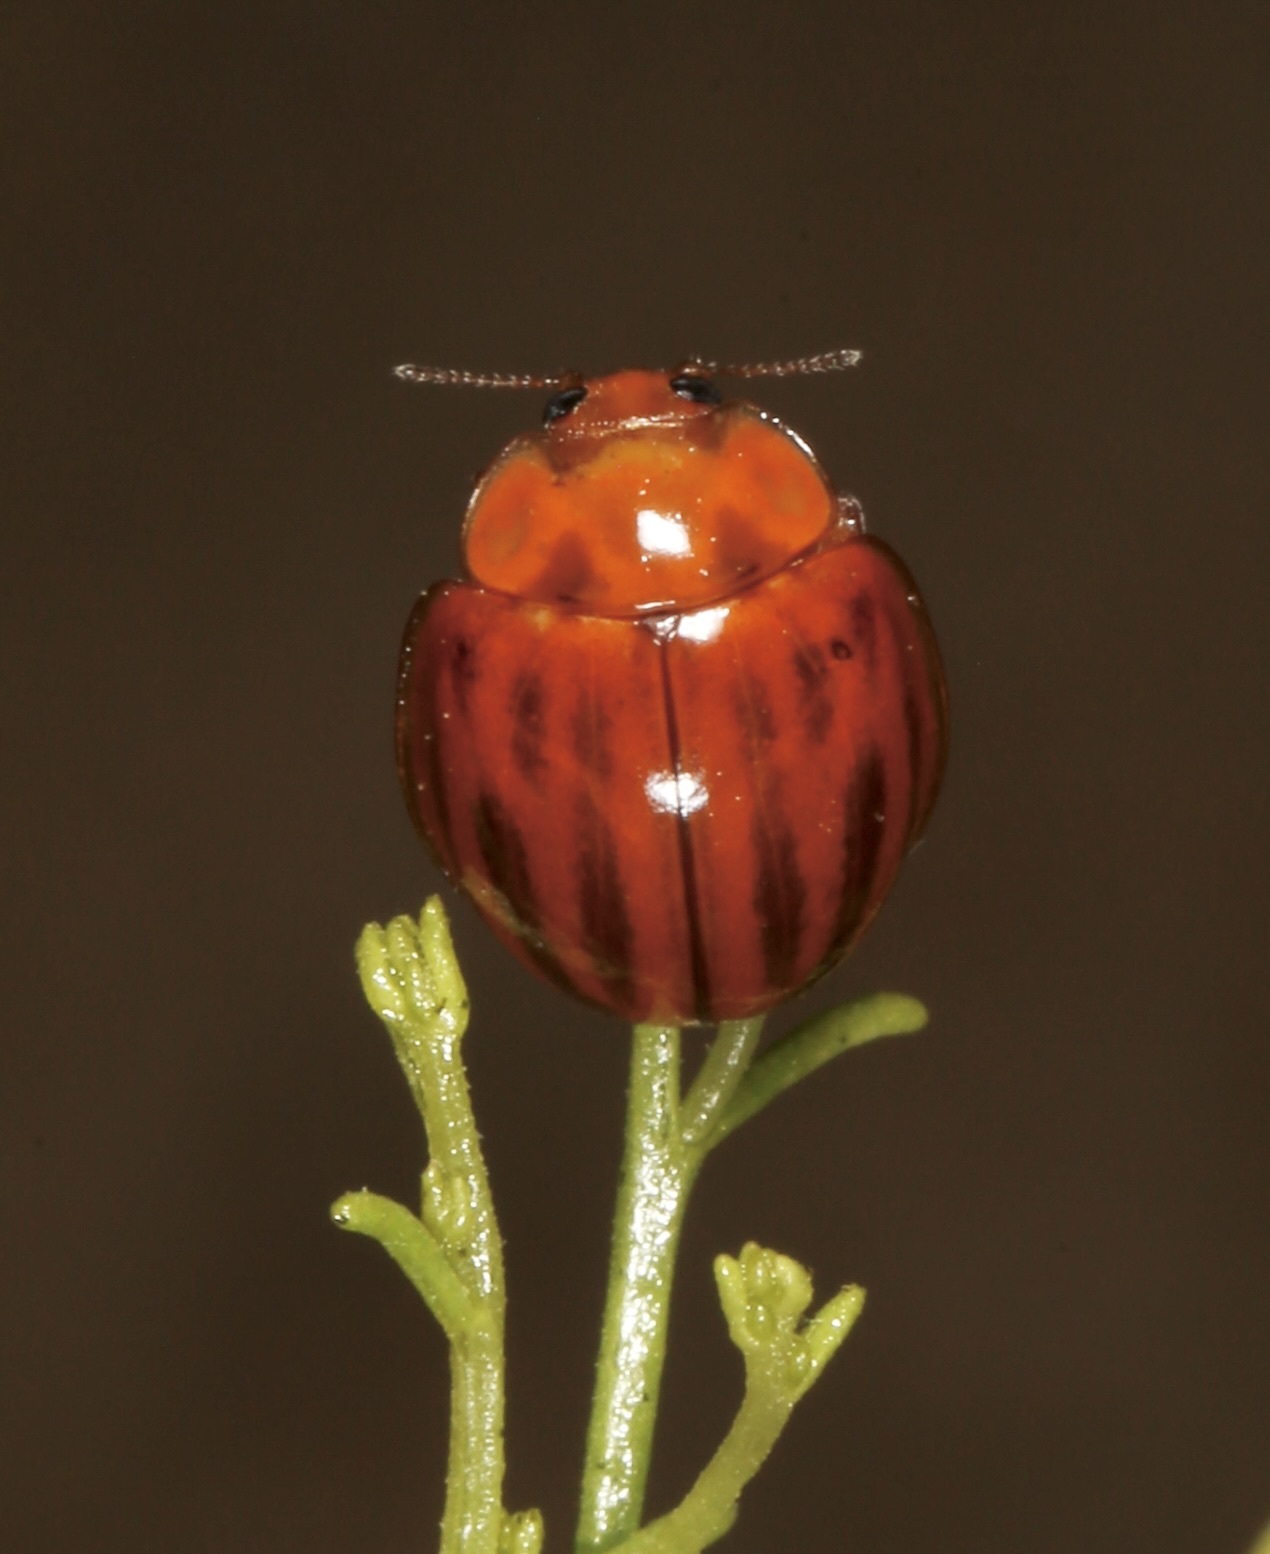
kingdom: Animalia
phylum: Arthropoda
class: Insecta
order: Coleoptera
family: Coccinellidae
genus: Myzia
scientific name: Myzia interrupta
